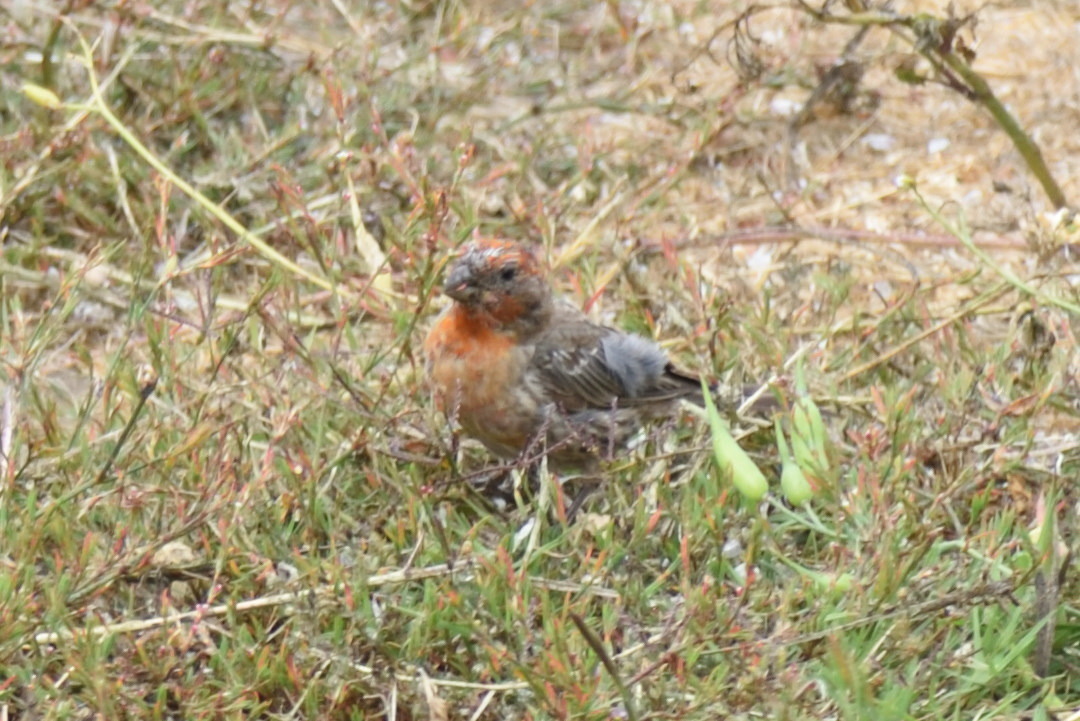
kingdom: Animalia
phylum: Chordata
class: Aves
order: Passeriformes
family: Fringillidae
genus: Haemorhous
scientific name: Haemorhous mexicanus
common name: House finch
